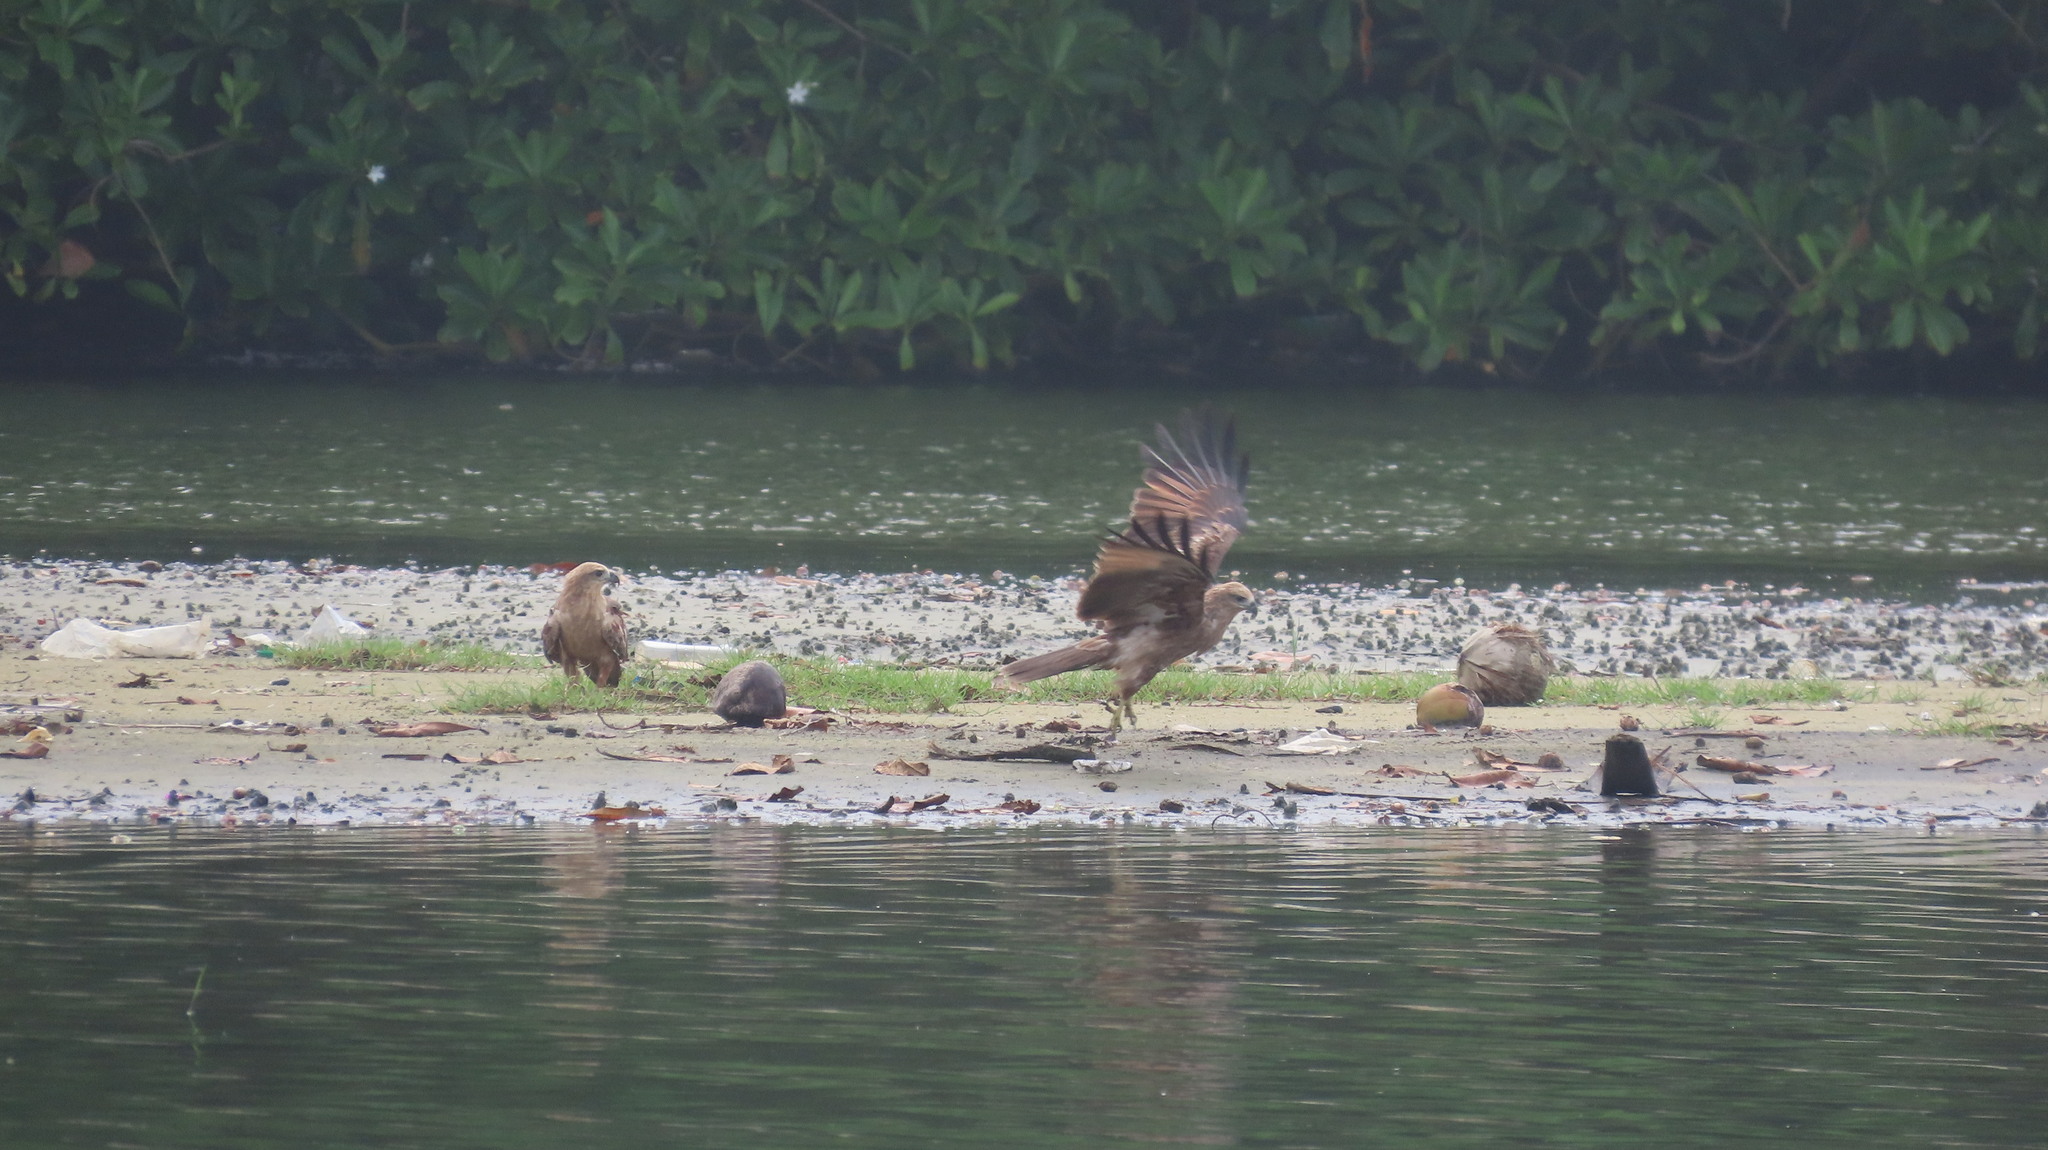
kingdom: Animalia
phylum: Chordata
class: Aves
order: Accipitriformes
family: Accipitridae
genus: Haliastur
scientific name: Haliastur indus
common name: Brahminy kite
